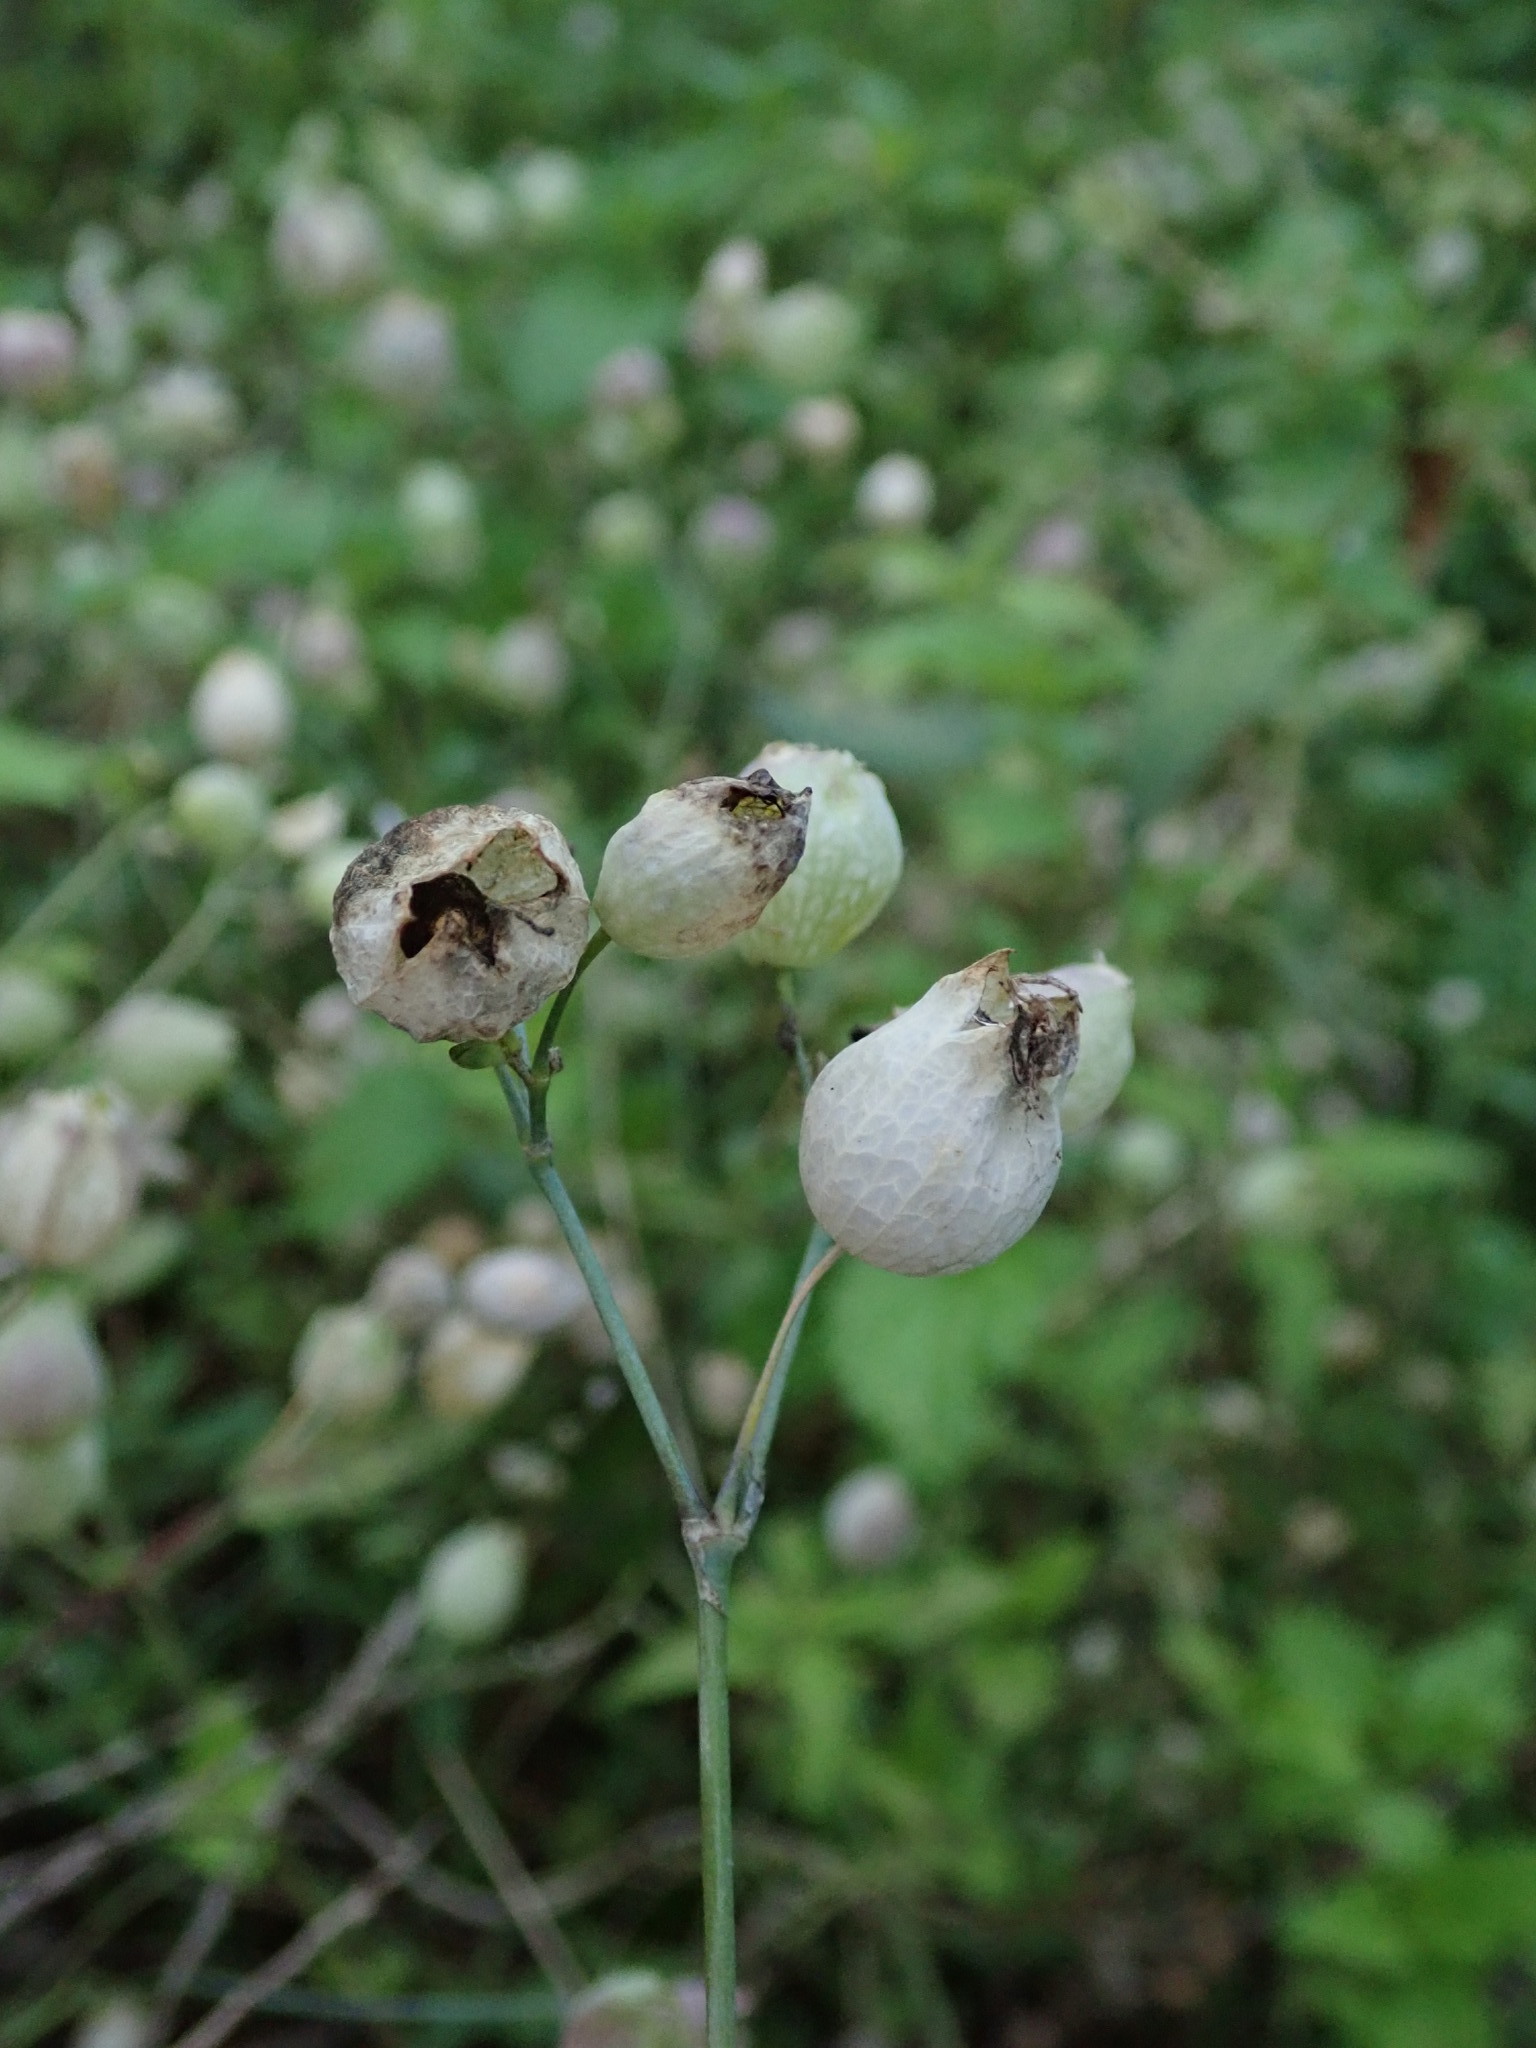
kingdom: Plantae
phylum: Tracheophyta
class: Magnoliopsida
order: Caryophyllales
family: Caryophyllaceae
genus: Silene
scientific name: Silene vulgaris
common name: Bladder campion
